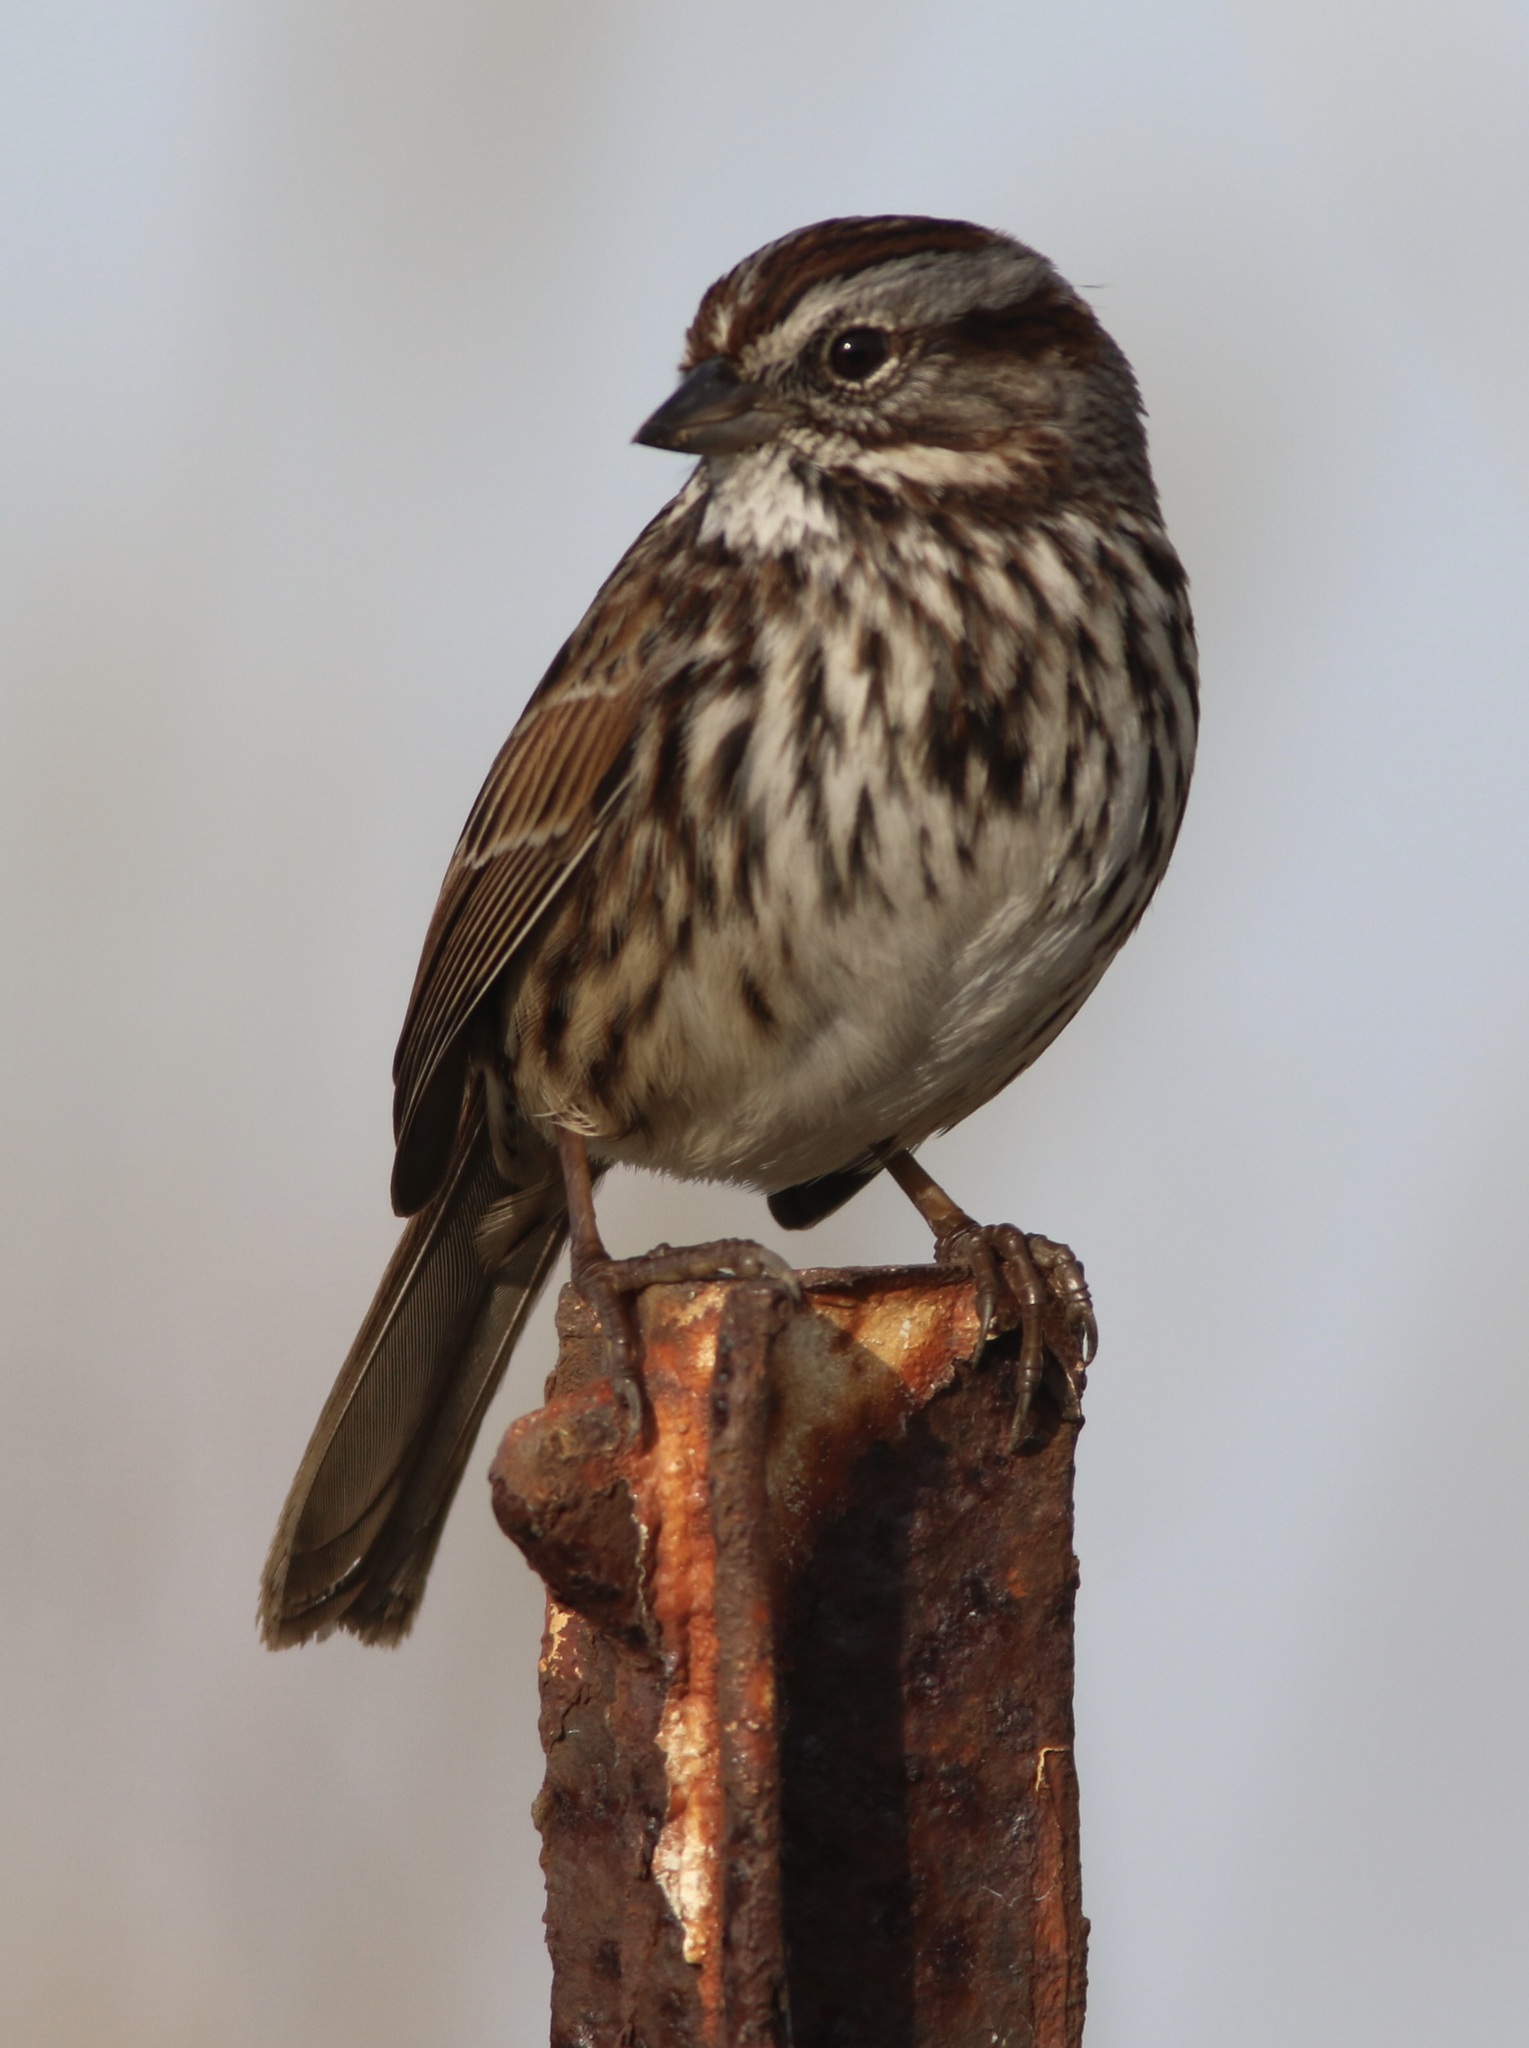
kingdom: Animalia
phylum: Chordata
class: Aves
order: Passeriformes
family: Passerellidae
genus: Melospiza
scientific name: Melospiza melodia
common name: Song sparrow
